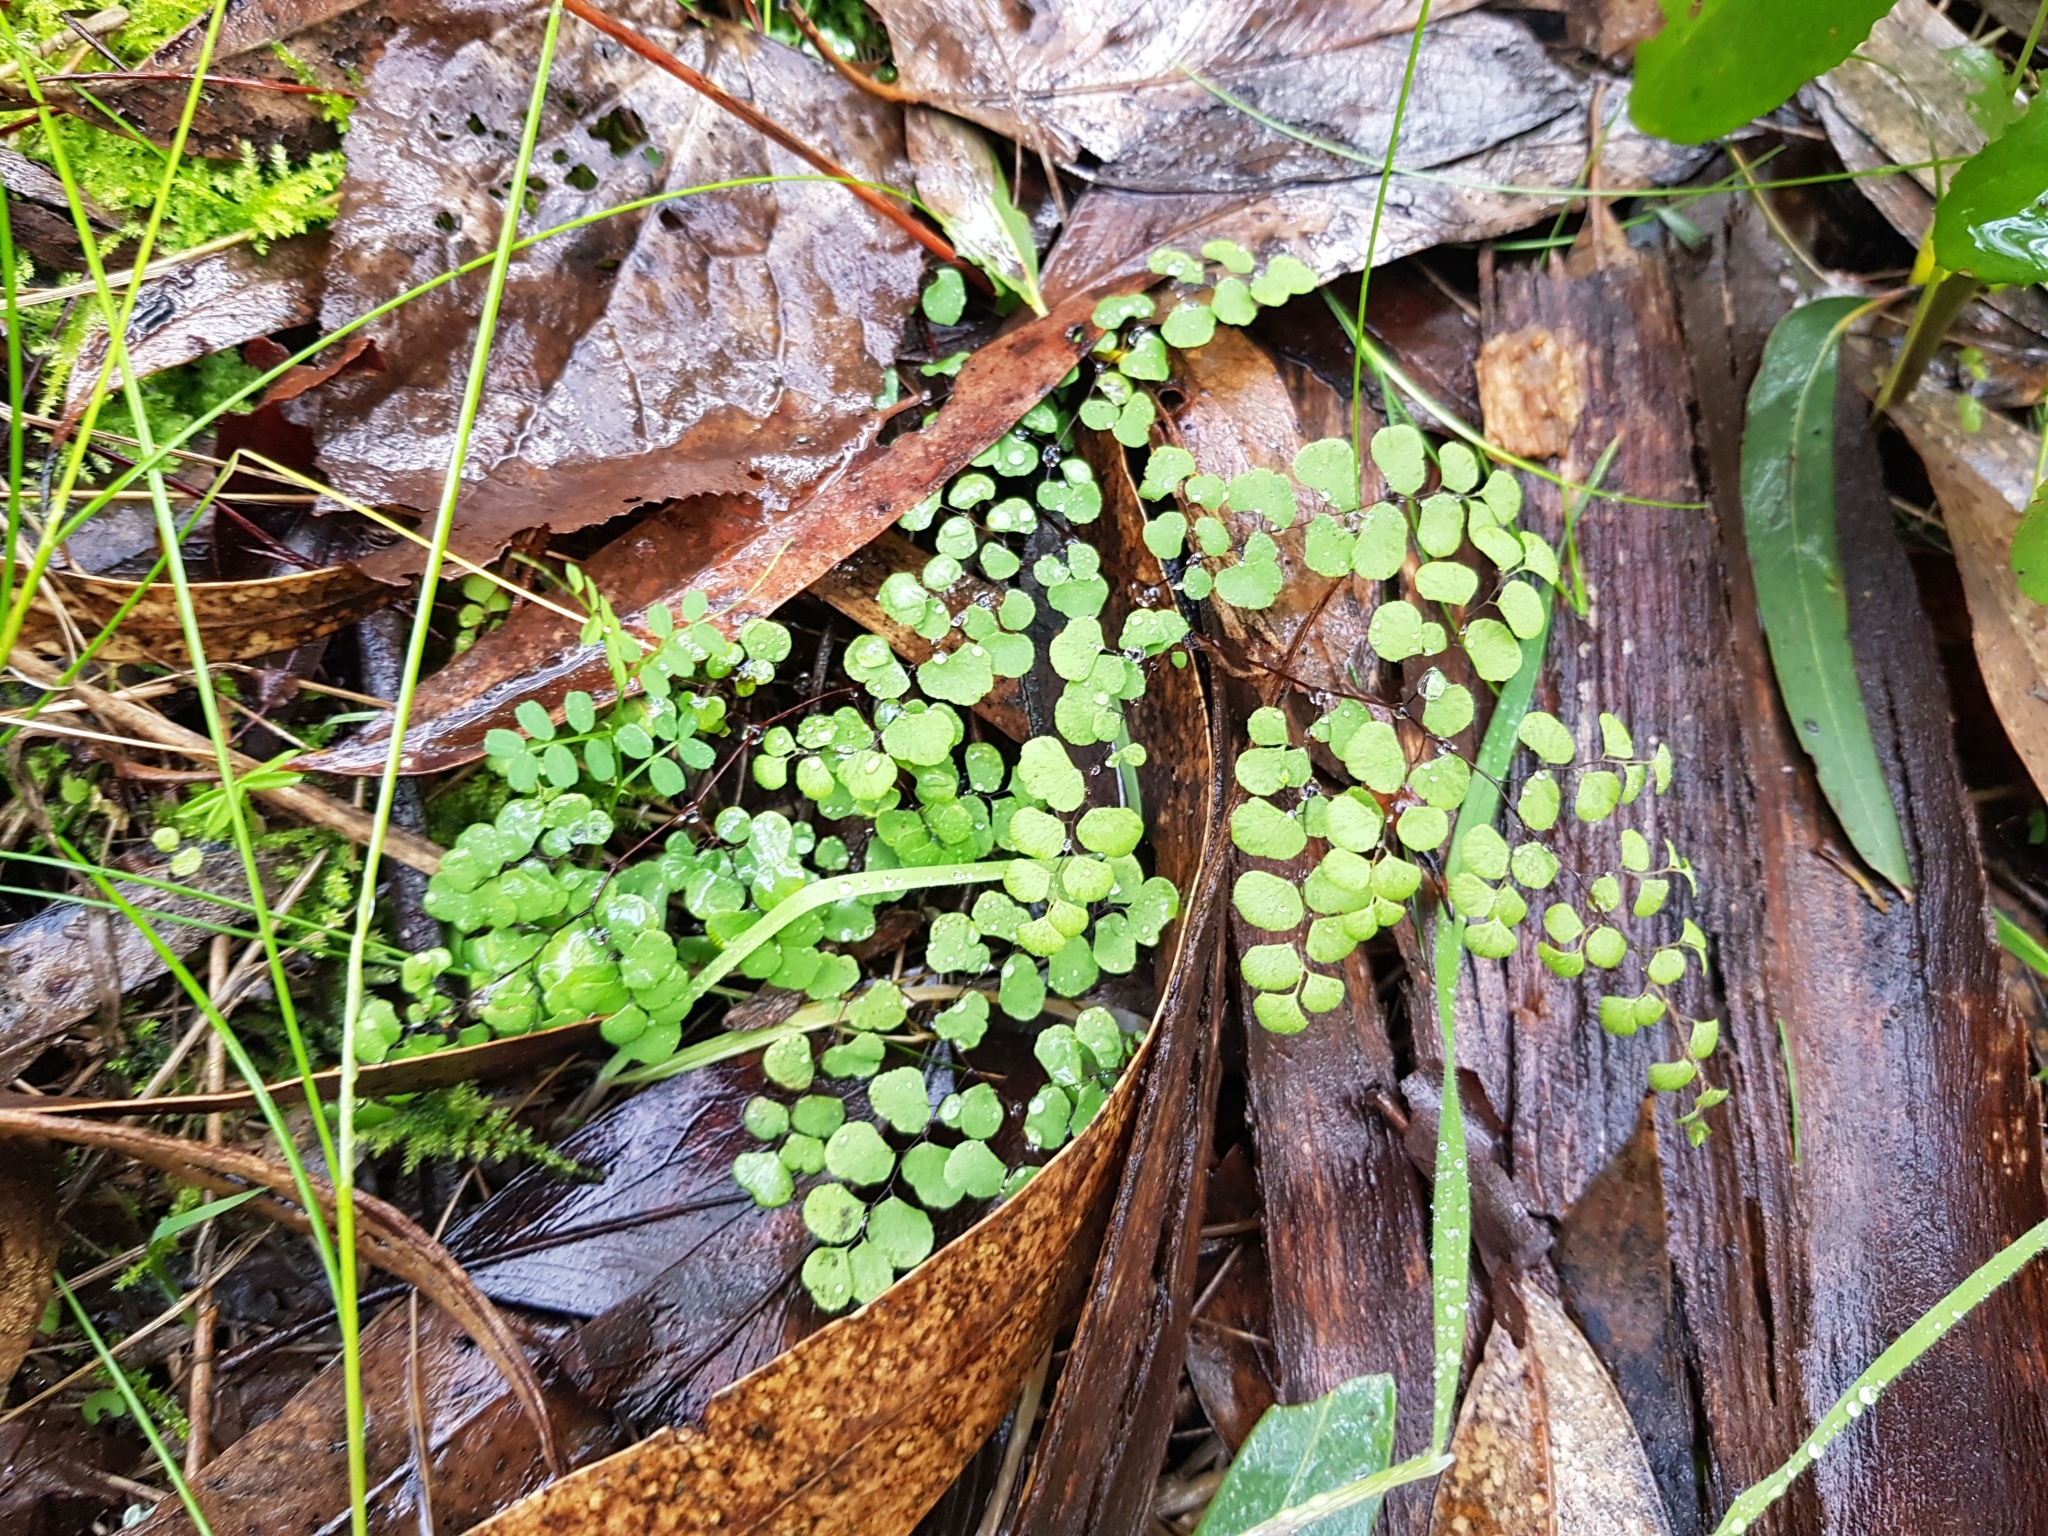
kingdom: Plantae
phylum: Tracheophyta
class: Polypodiopsida
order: Polypodiales
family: Pteridaceae
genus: Adiantum
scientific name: Adiantum aethiopicum
